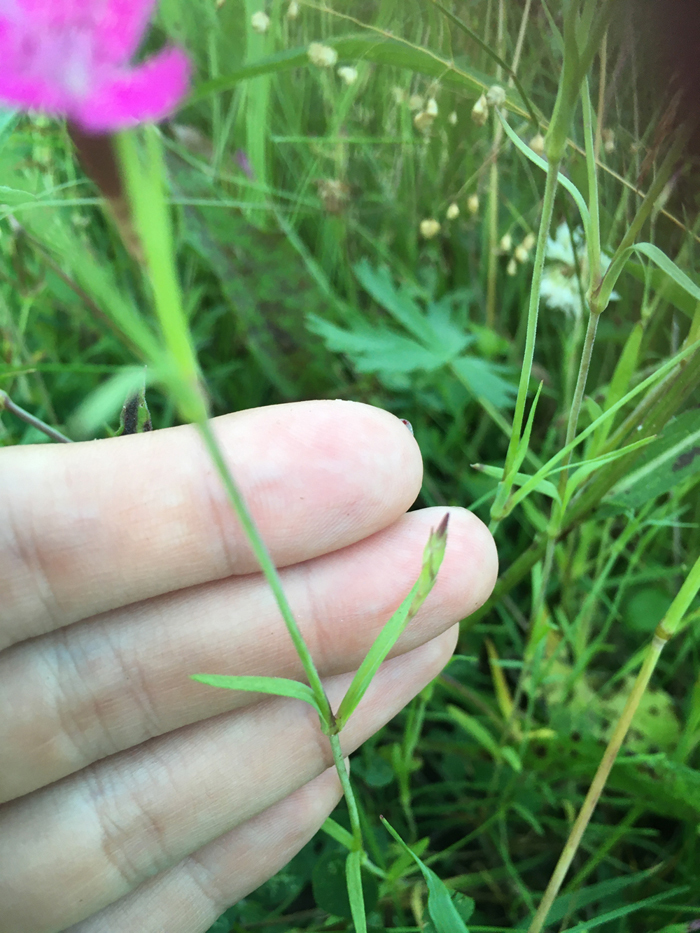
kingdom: Plantae
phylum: Tracheophyta
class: Magnoliopsida
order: Caryophyllales
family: Caryophyllaceae
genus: Dianthus
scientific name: Dianthus deltoides
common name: Maiden pink
